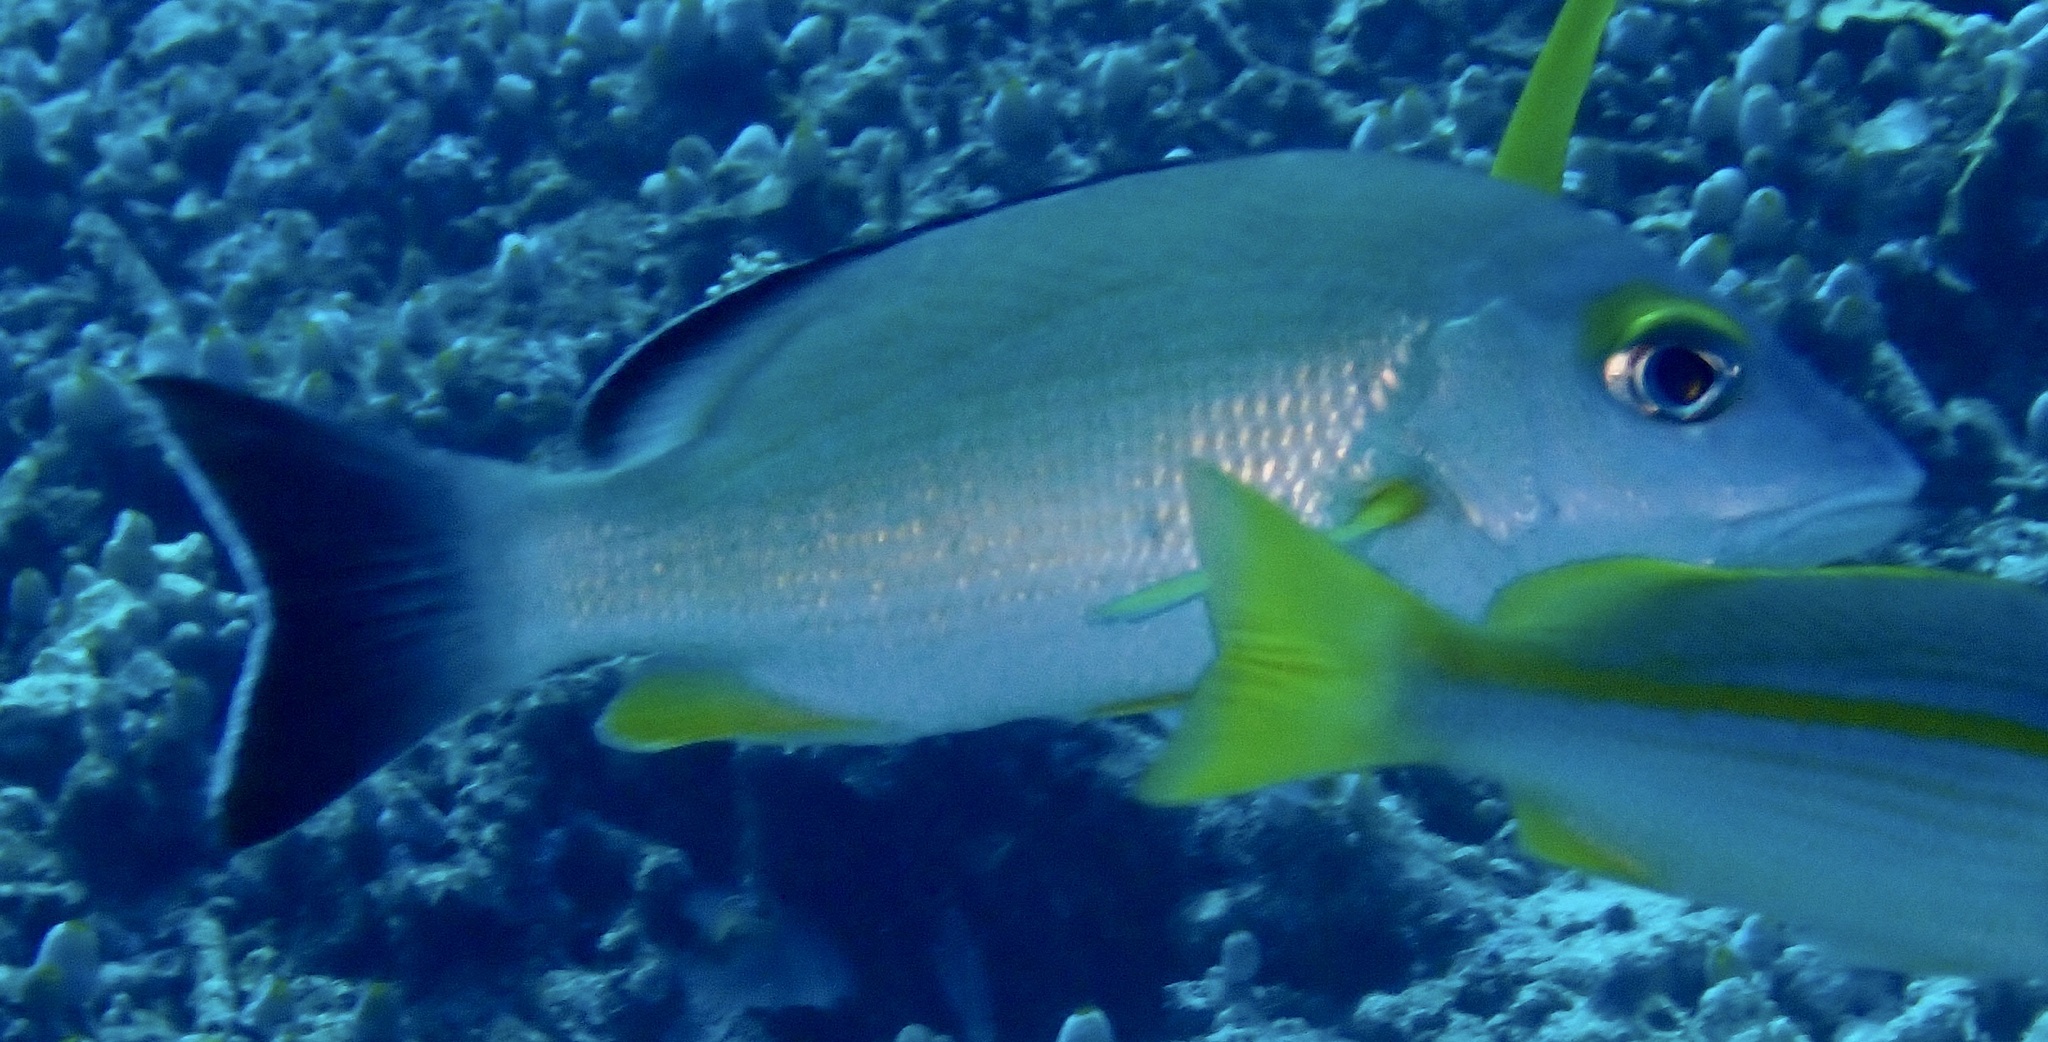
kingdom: Animalia
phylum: Chordata
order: Perciformes
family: Lutjanidae
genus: Lutjanus
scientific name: Lutjanus fulvus
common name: Blacktail snapper
